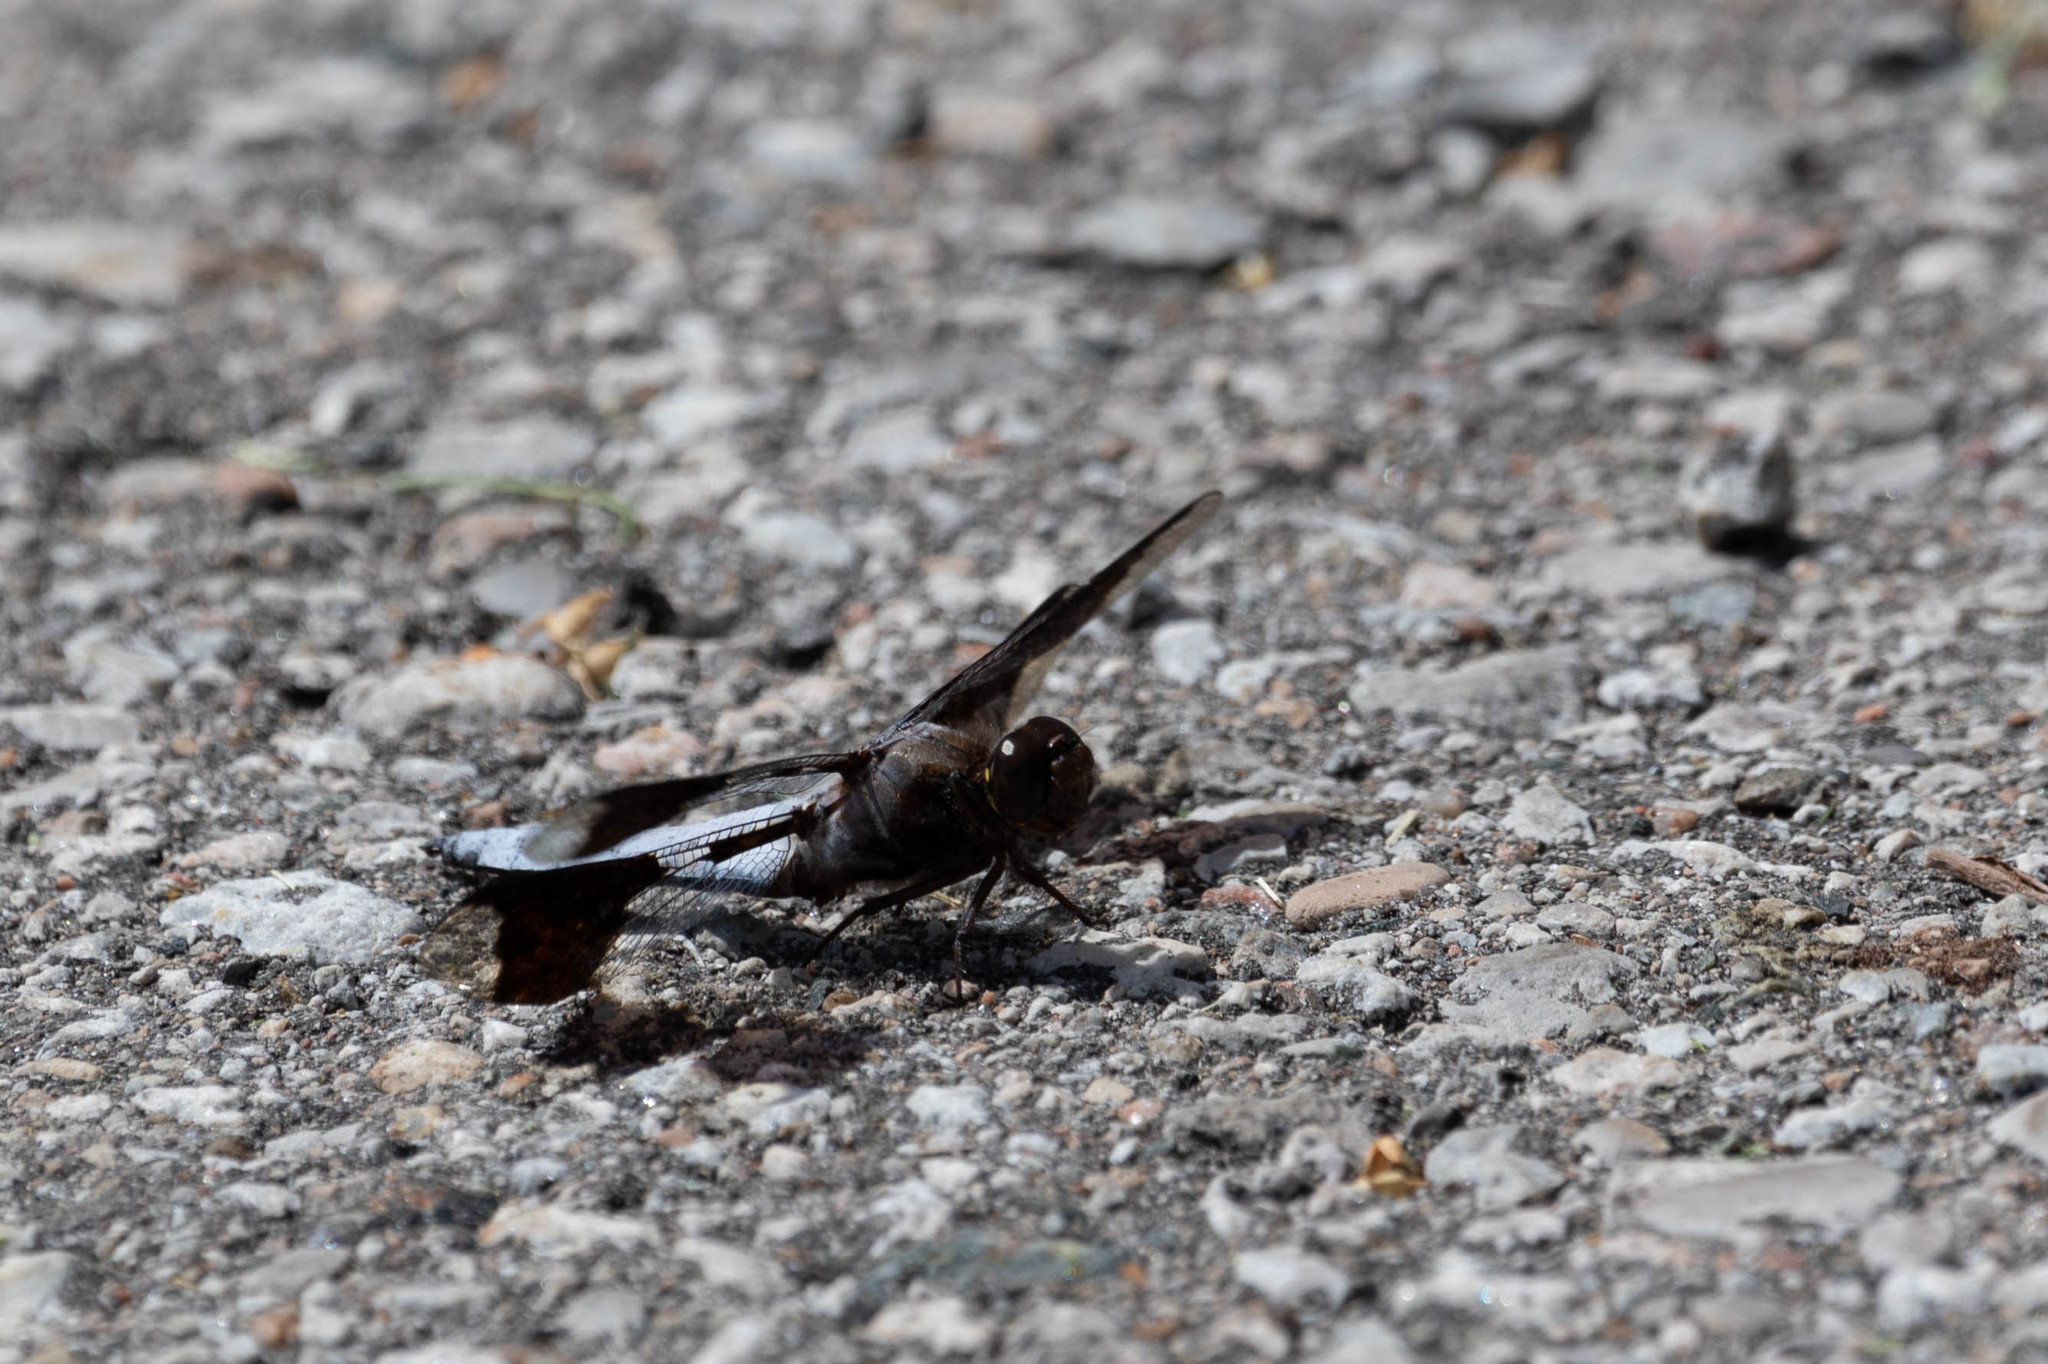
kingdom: Animalia
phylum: Arthropoda
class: Insecta
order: Odonata
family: Libellulidae
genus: Plathemis
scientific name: Plathemis lydia
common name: Common whitetail
